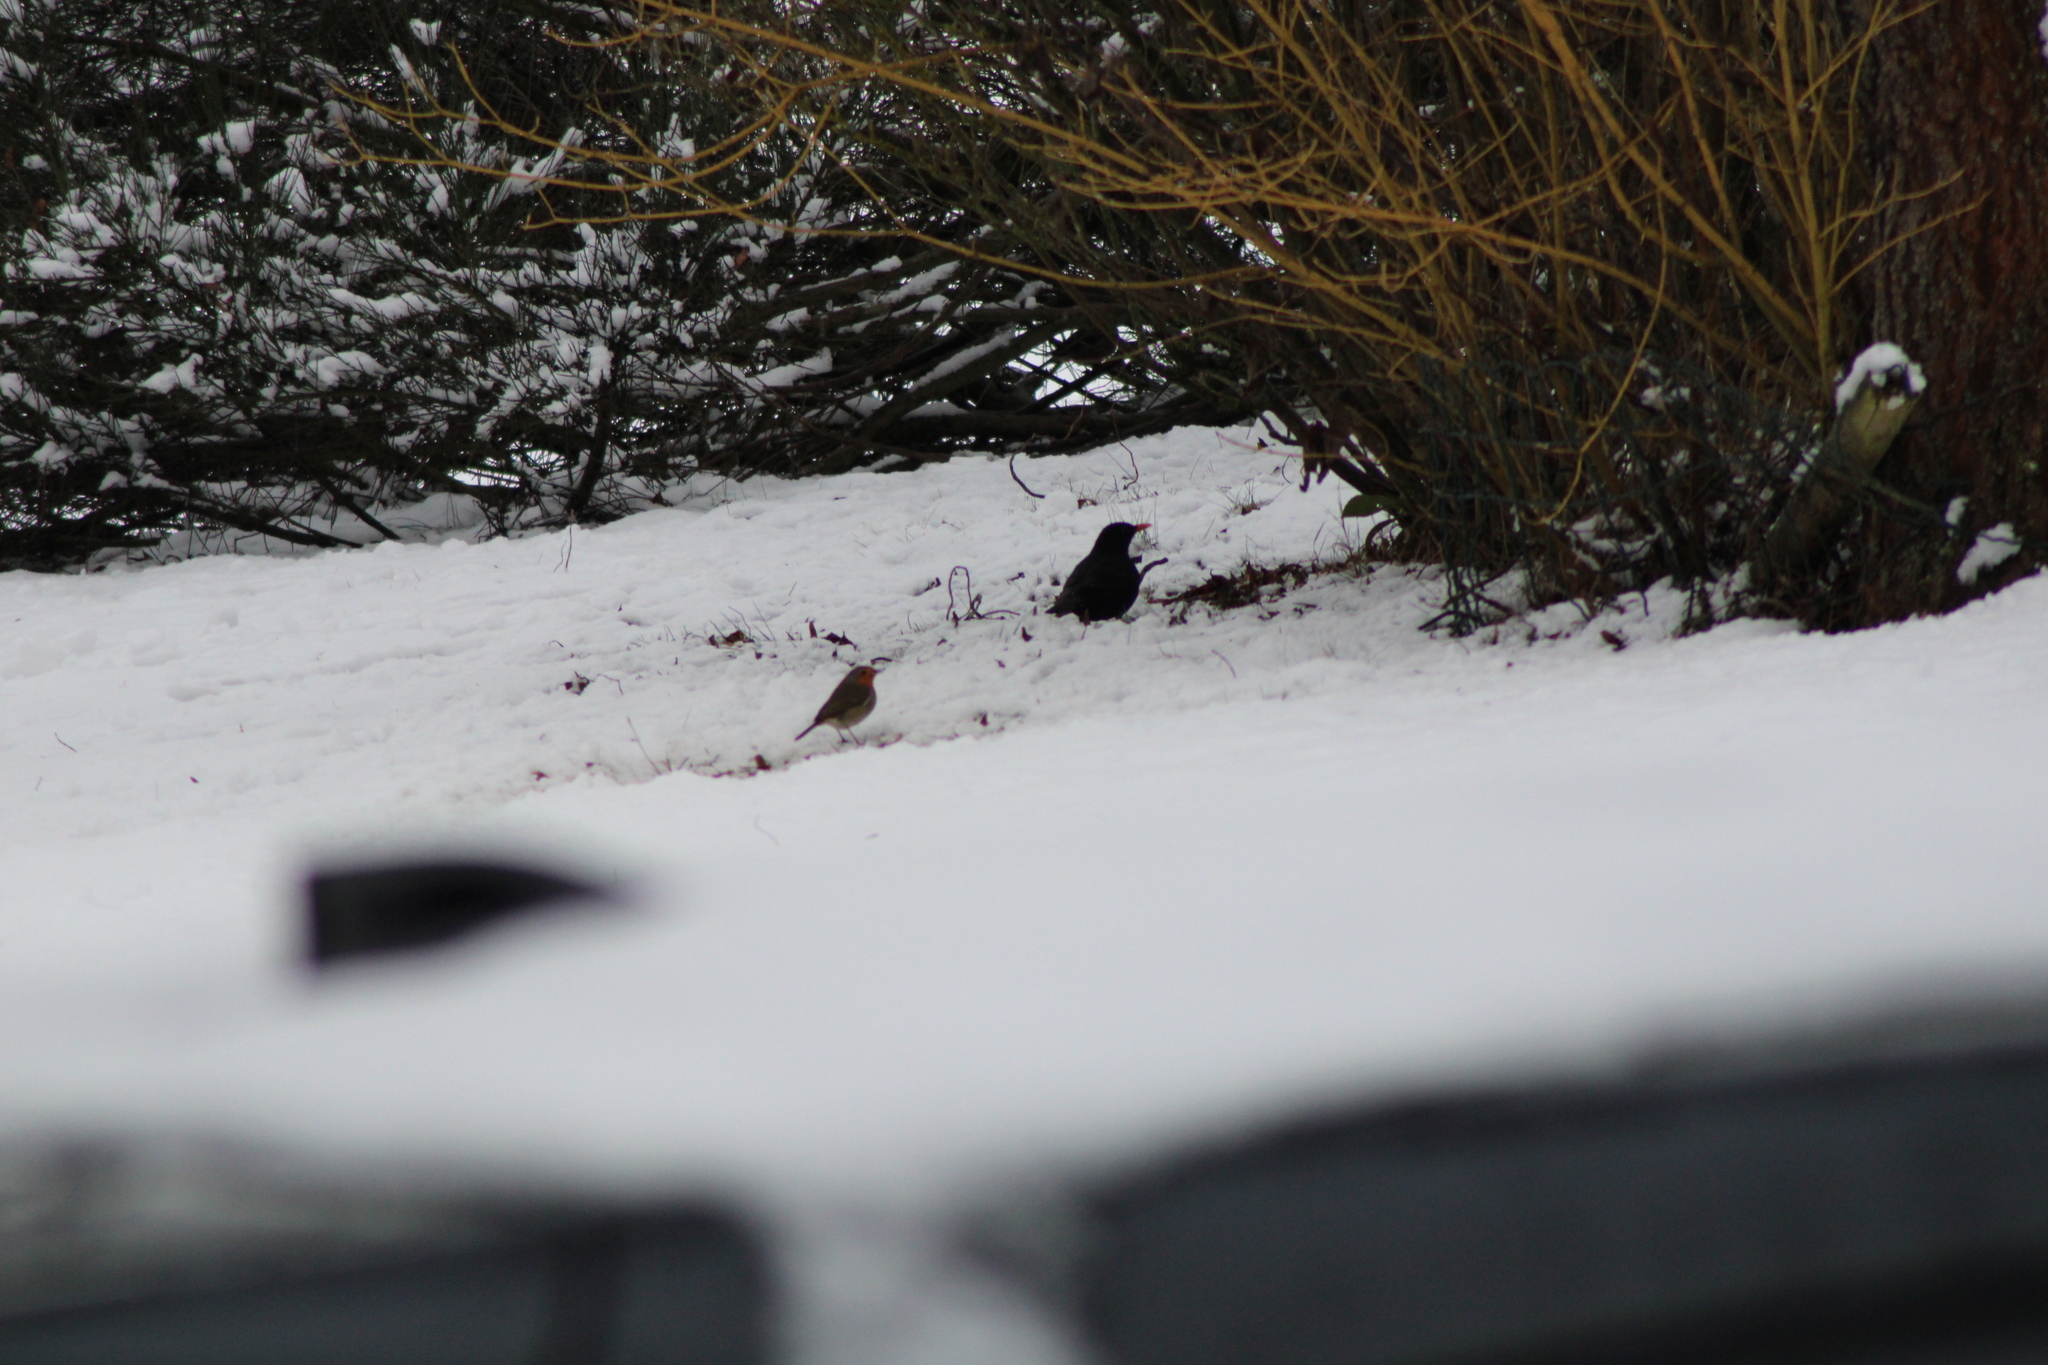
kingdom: Animalia
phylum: Chordata
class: Aves
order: Passeriformes
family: Muscicapidae
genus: Erithacus
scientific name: Erithacus rubecula
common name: European robin
